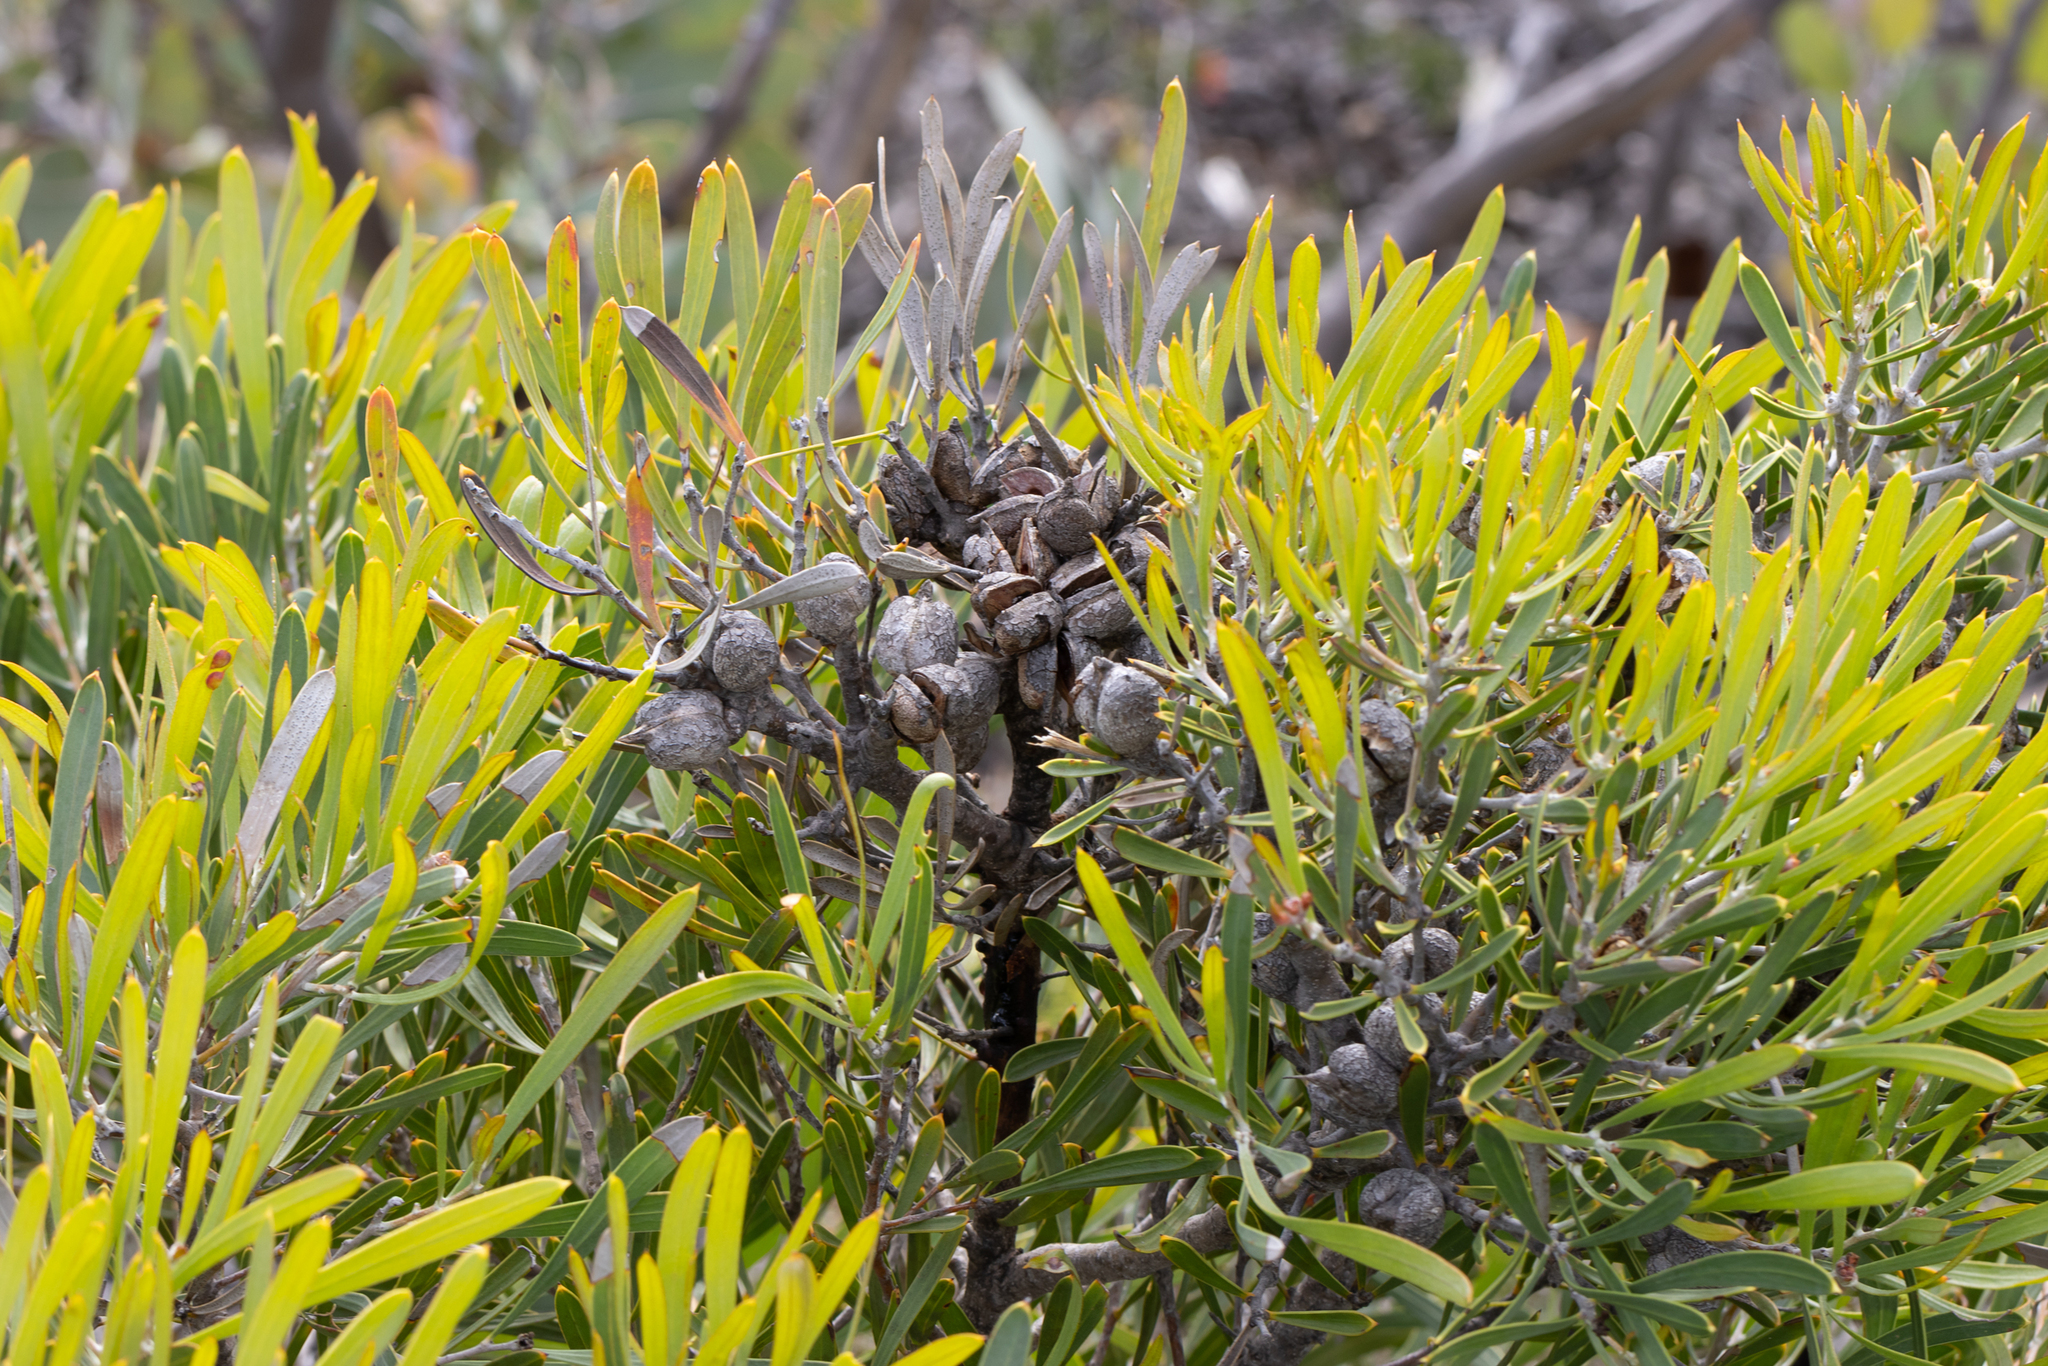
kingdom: Plantae
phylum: Tracheophyta
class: Magnoliopsida
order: Proteales
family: Proteaceae
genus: Hakea
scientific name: Hakea corymbosa
